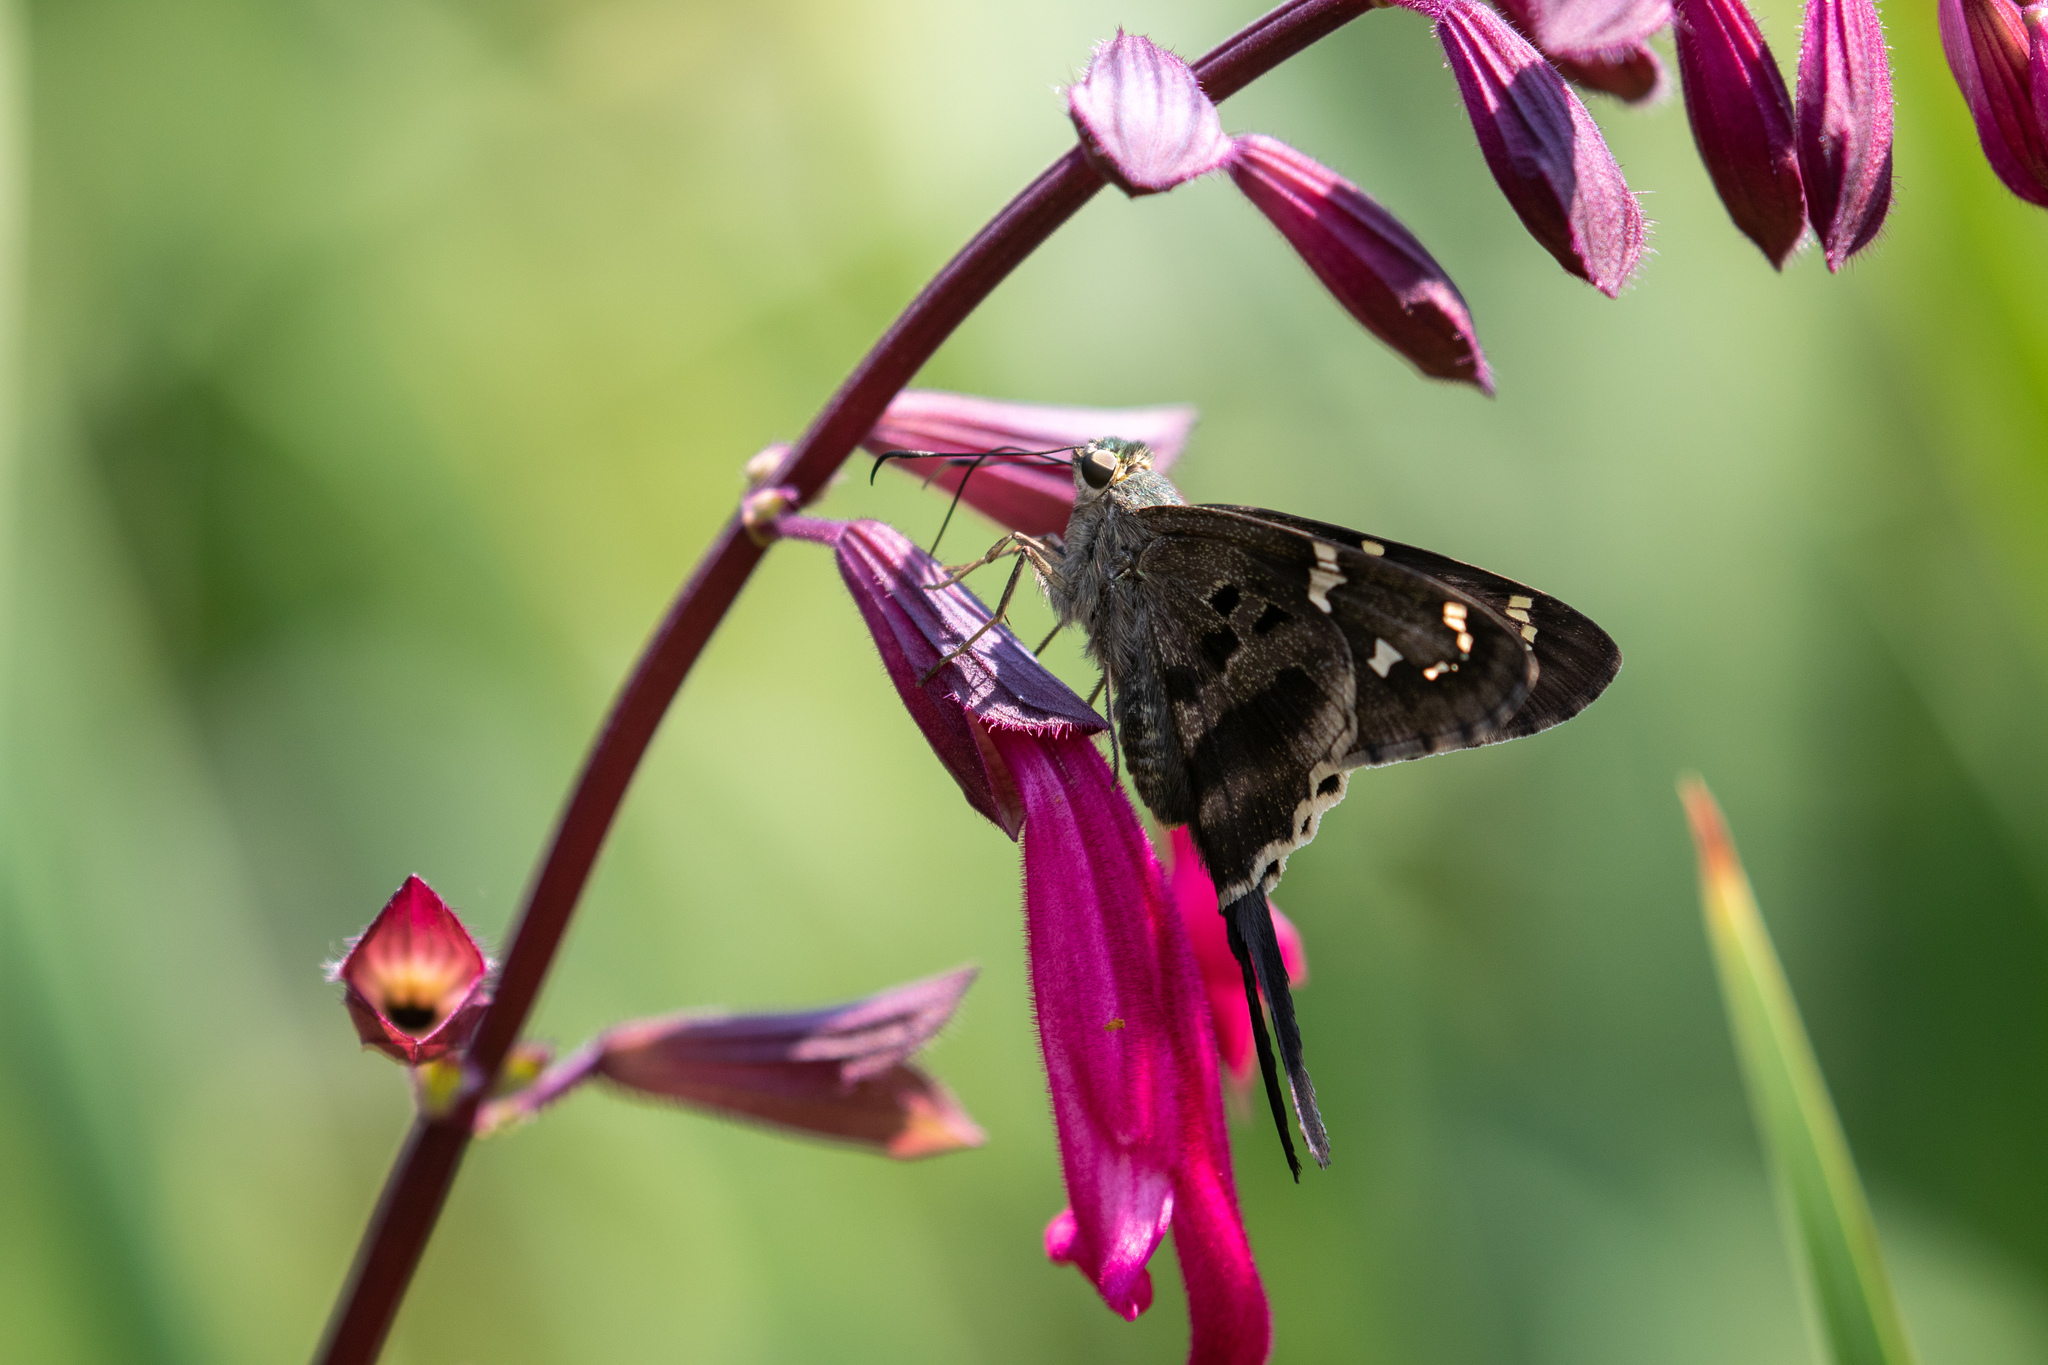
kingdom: Animalia
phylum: Arthropoda
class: Insecta
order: Lepidoptera
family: Hesperiidae
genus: Urbanus
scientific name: Urbanus proteus
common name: Long-tailed skipper
